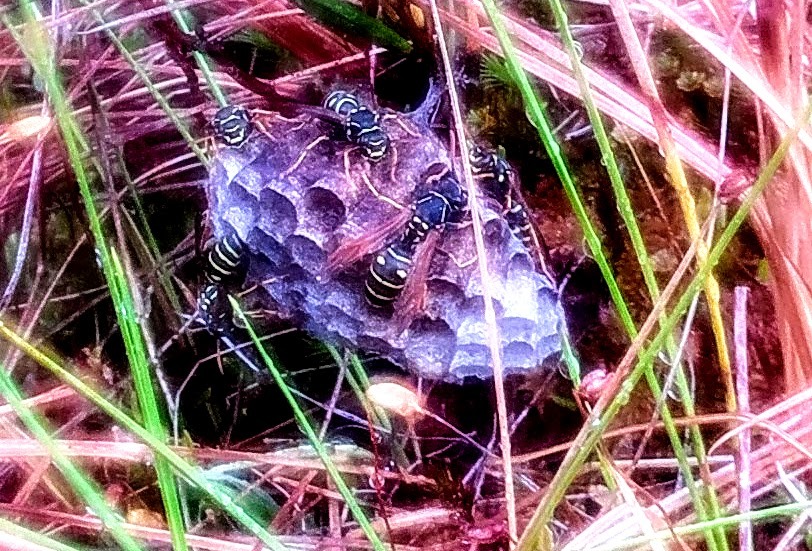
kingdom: Animalia
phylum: Arthropoda
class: Insecta
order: Hymenoptera
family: Eumenidae
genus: Polistes
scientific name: Polistes nimpha
